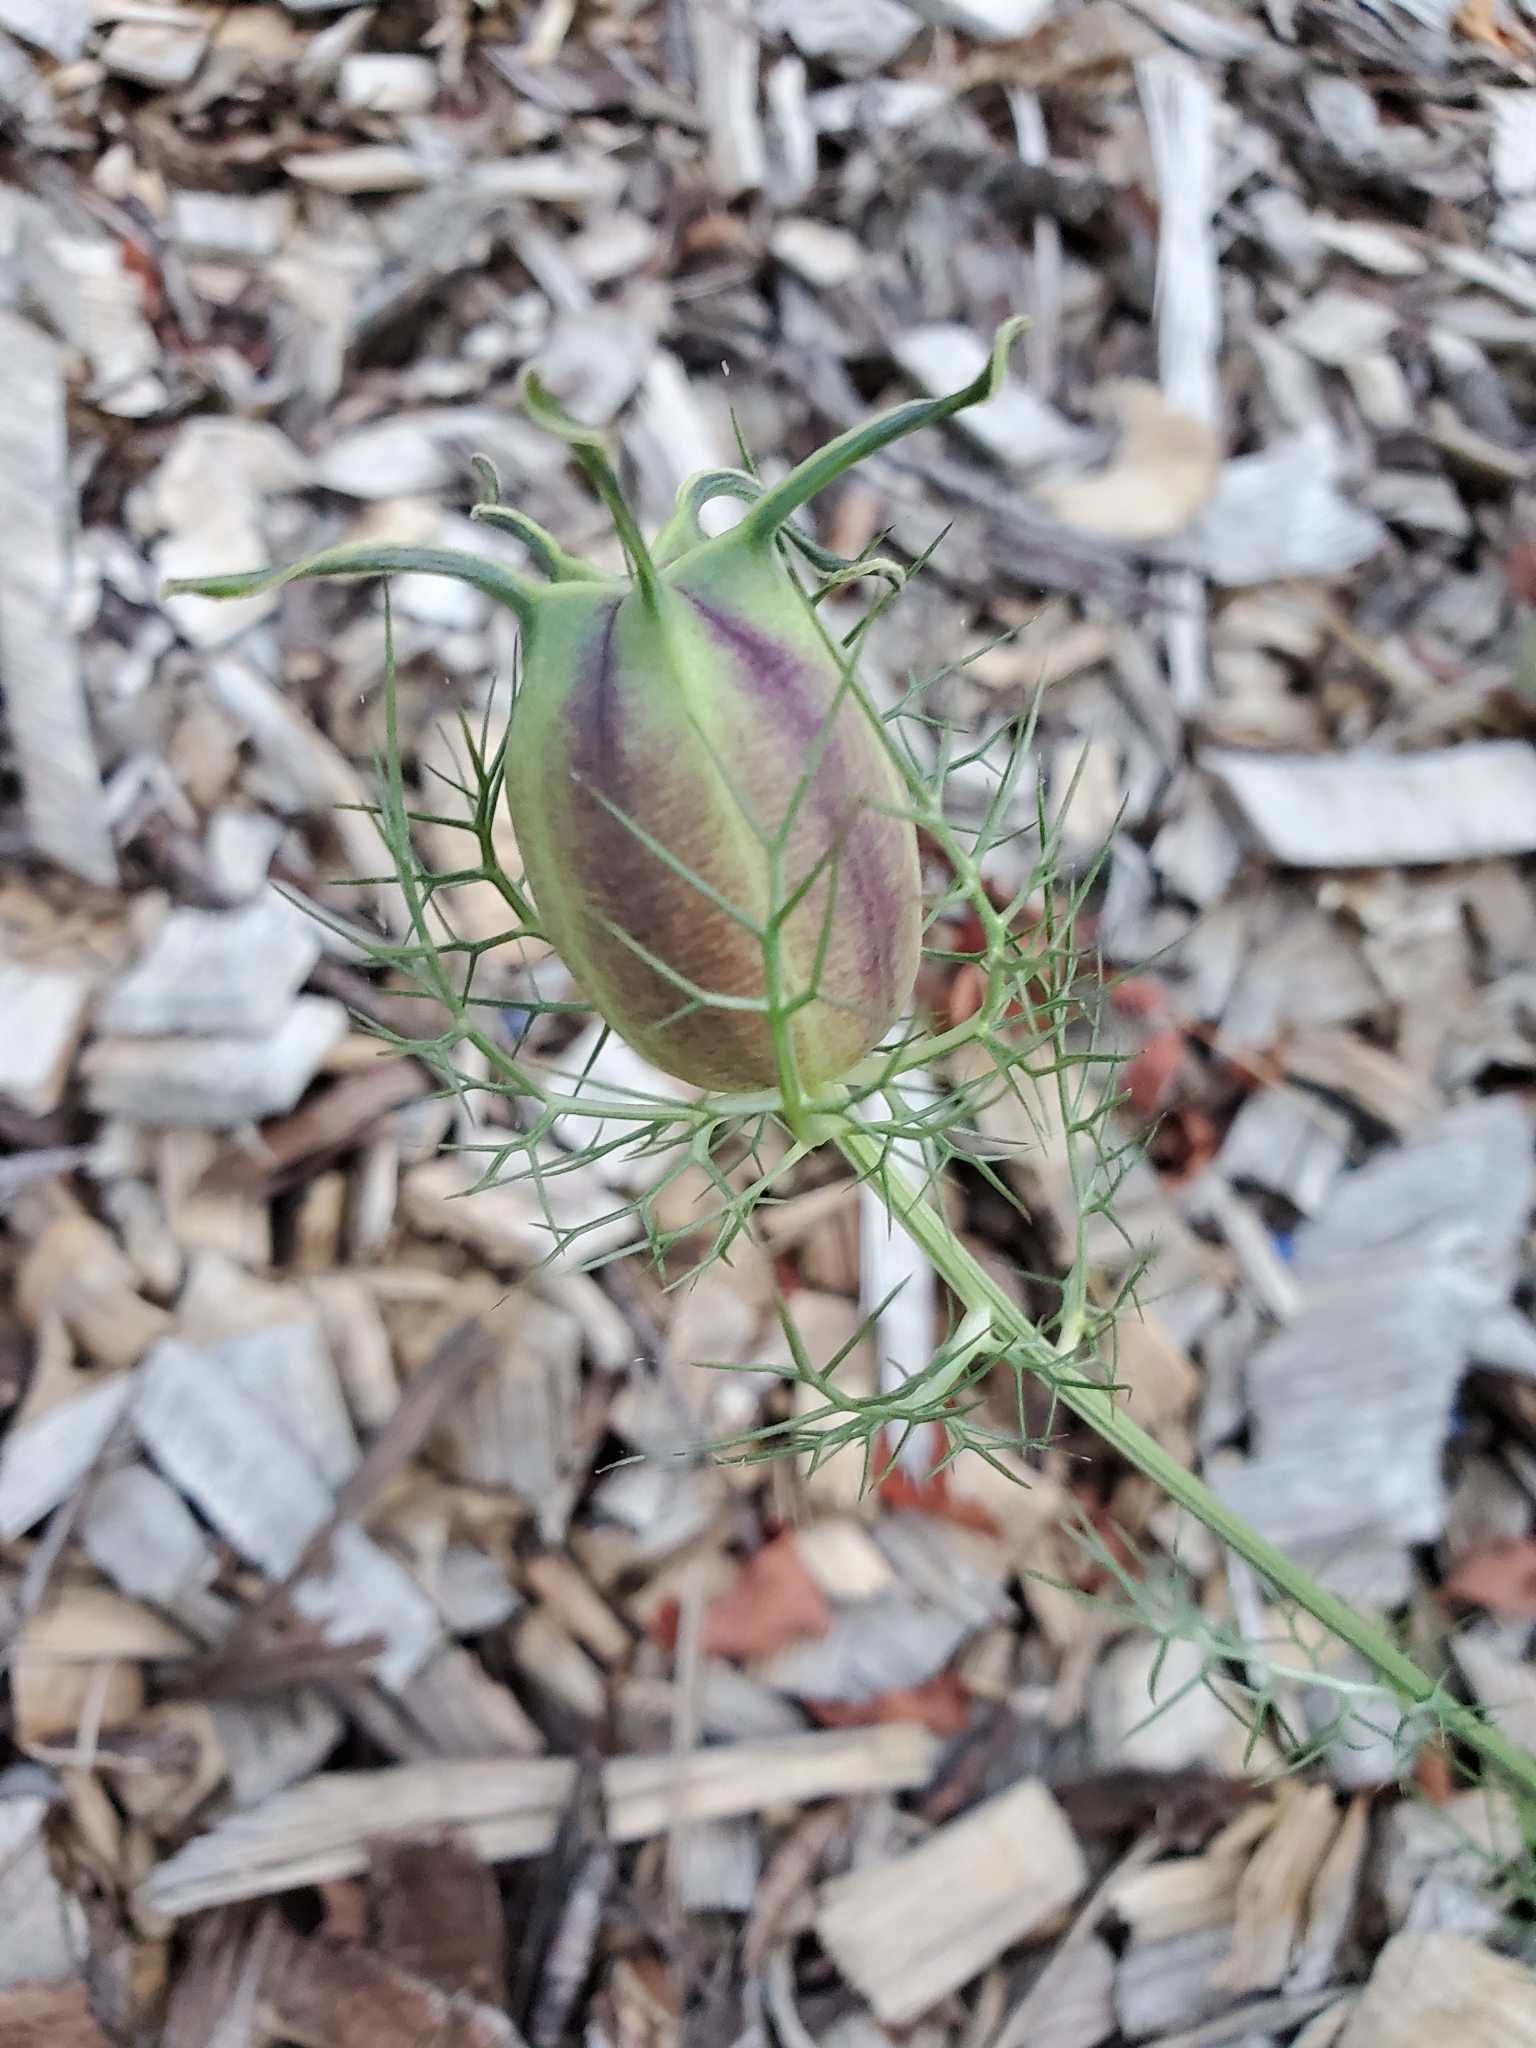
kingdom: Plantae
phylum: Tracheophyta
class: Magnoliopsida
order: Ranunculales
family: Ranunculaceae
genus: Nigella
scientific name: Nigella damascena
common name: Love-in-a-mist
